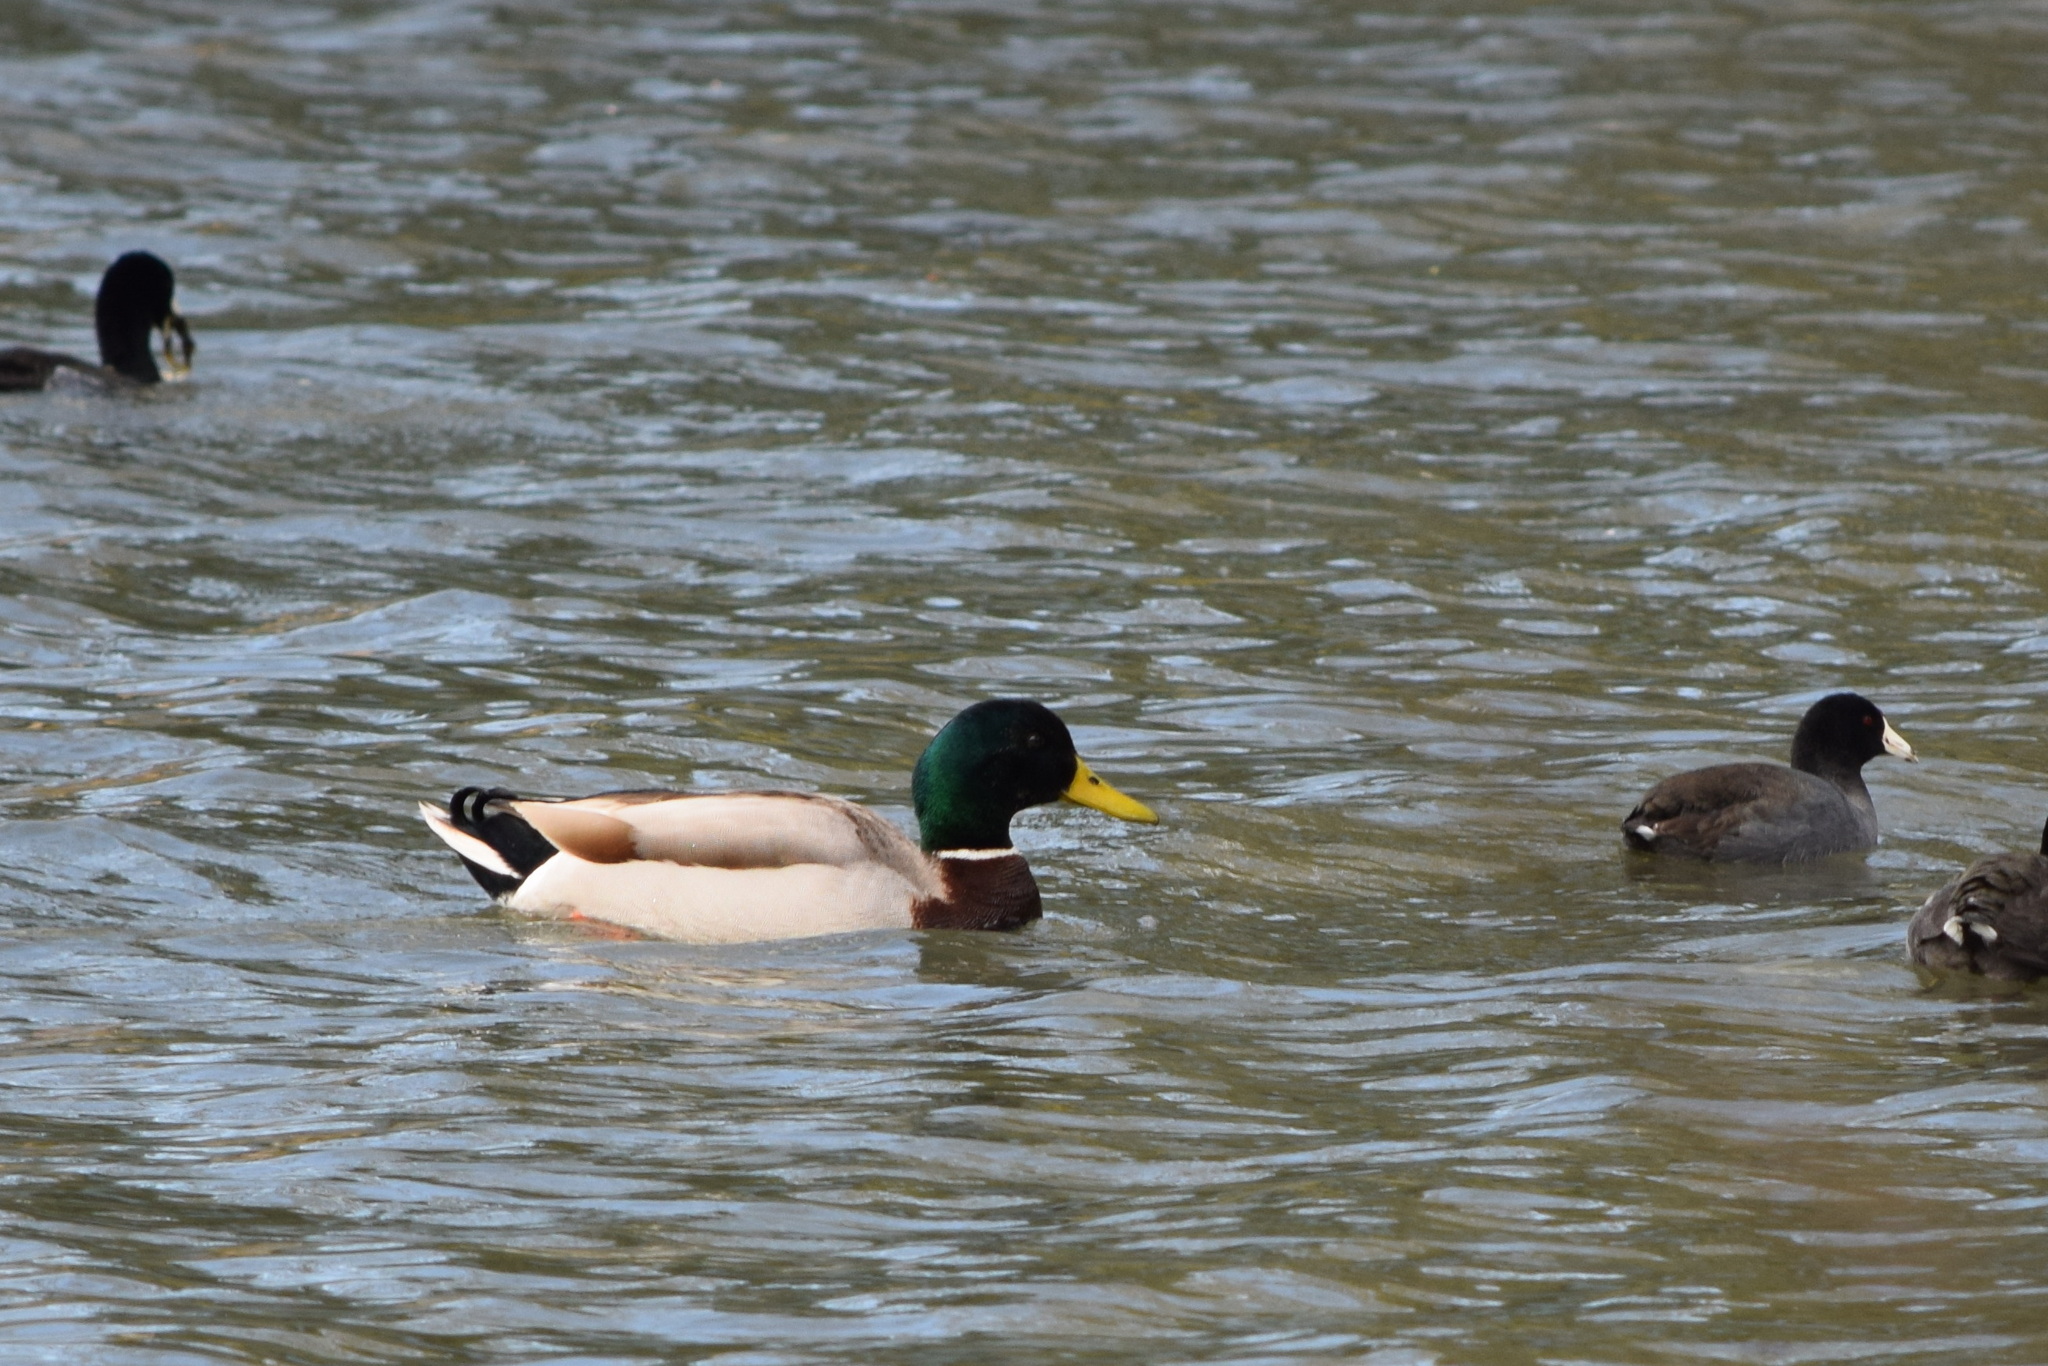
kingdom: Animalia
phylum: Chordata
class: Aves
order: Anseriformes
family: Anatidae
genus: Anas
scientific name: Anas platyrhynchos
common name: Mallard
